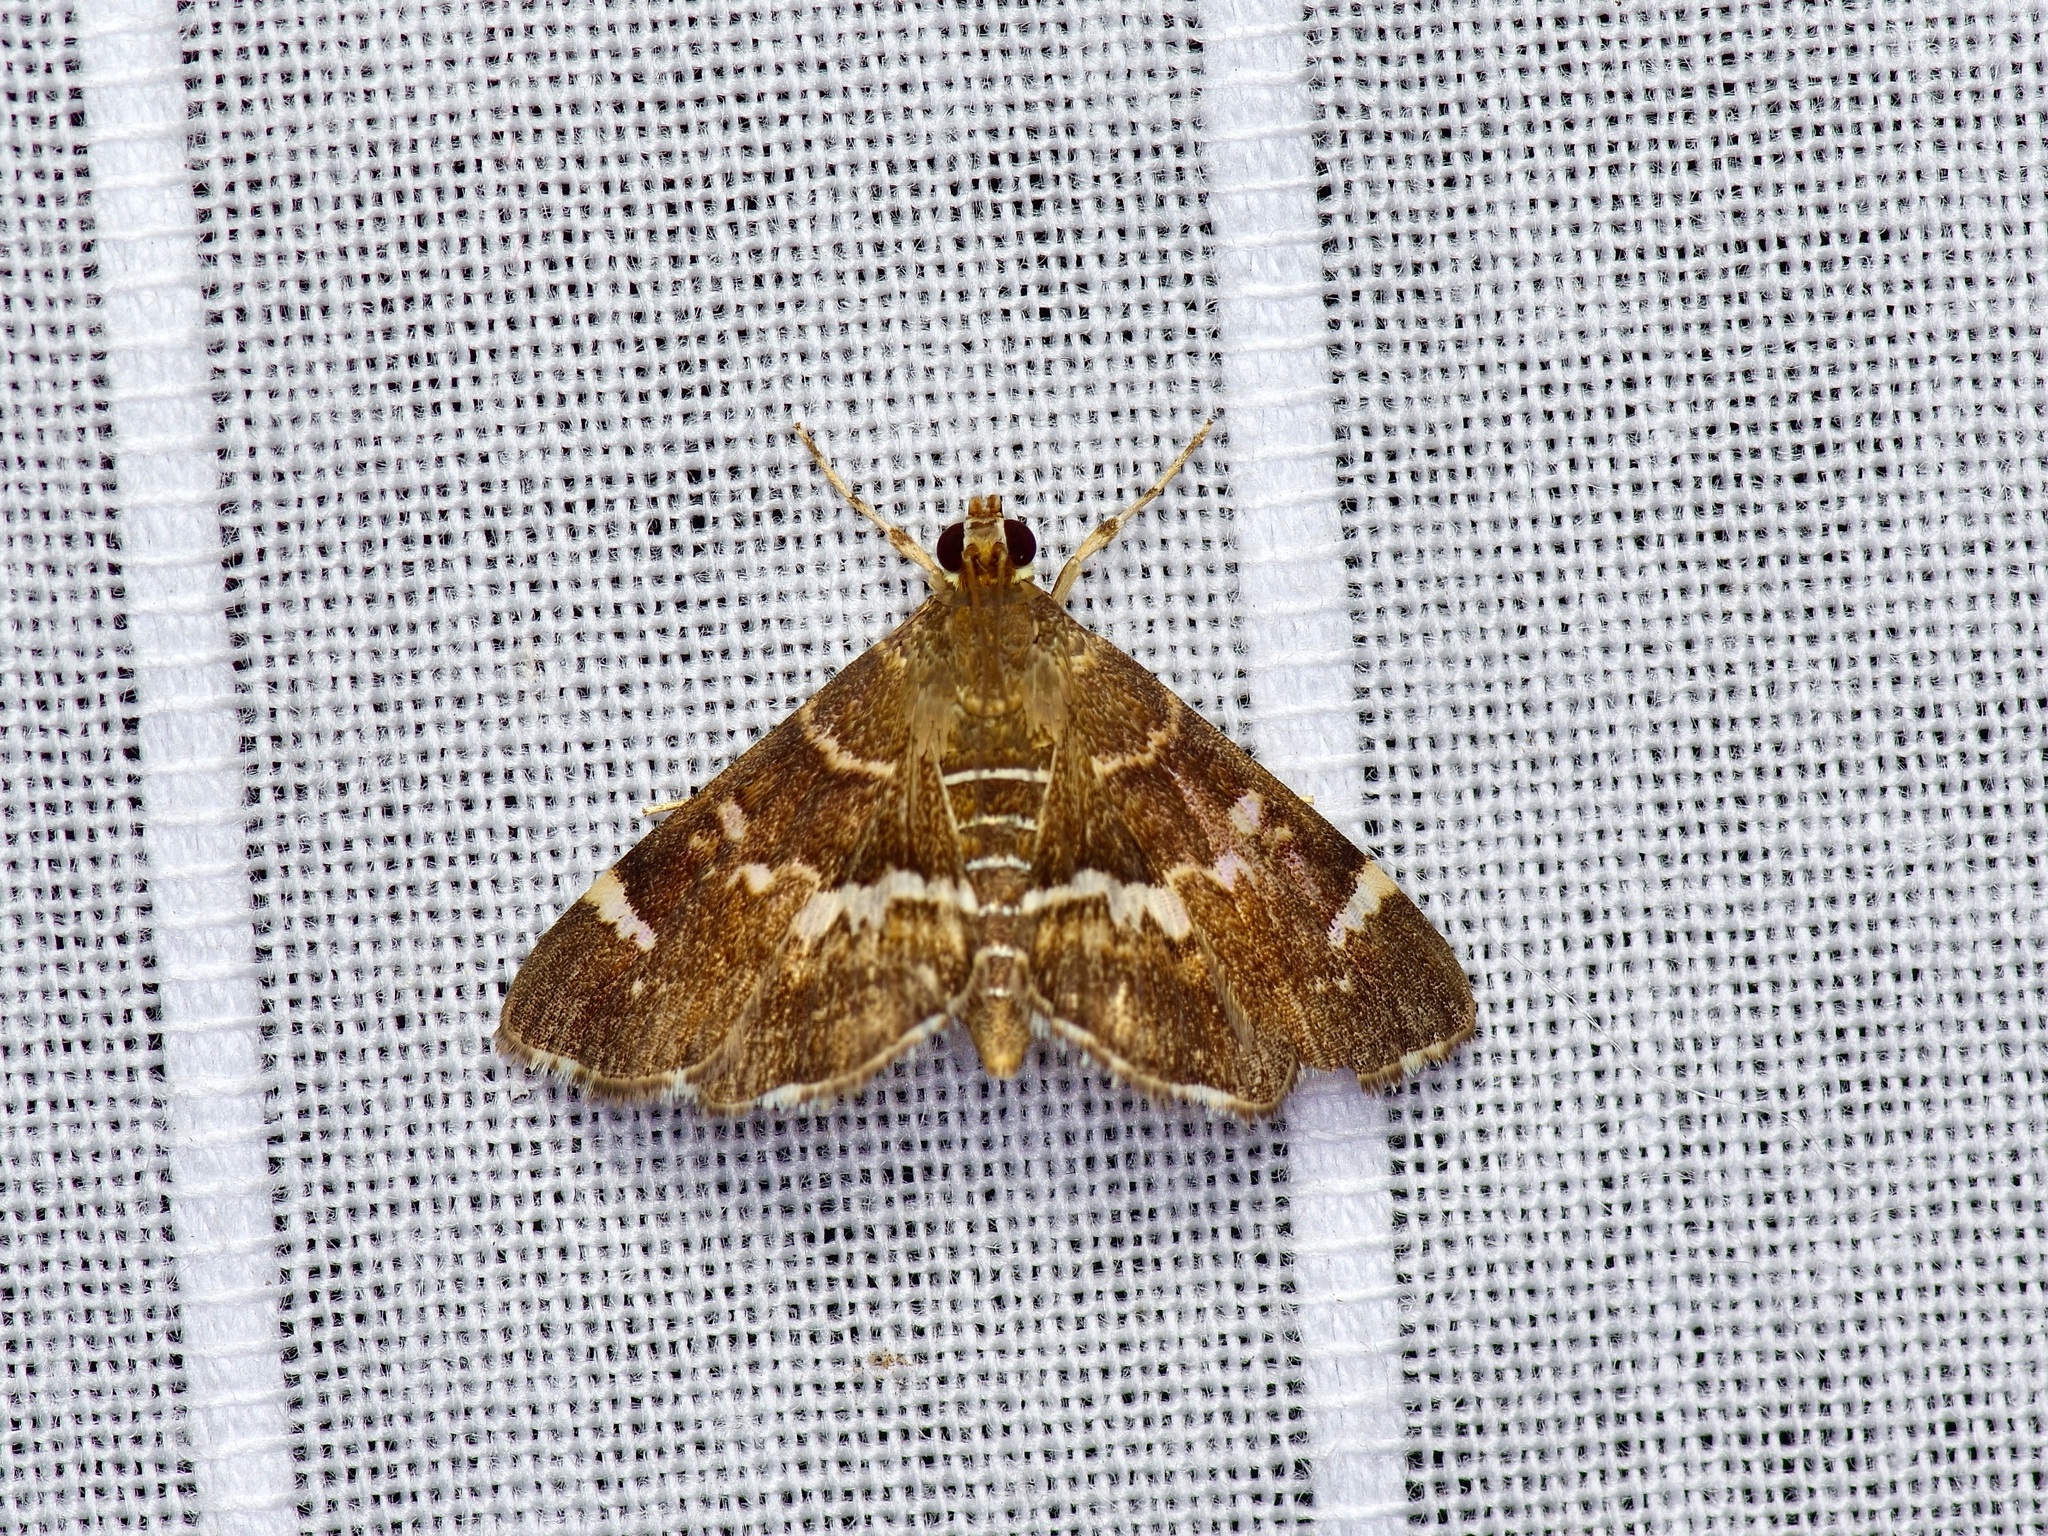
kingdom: Animalia
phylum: Arthropoda
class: Insecta
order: Lepidoptera
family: Crambidae
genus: Hymenia
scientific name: Hymenia perspectalis
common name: Spotted beet webworm
